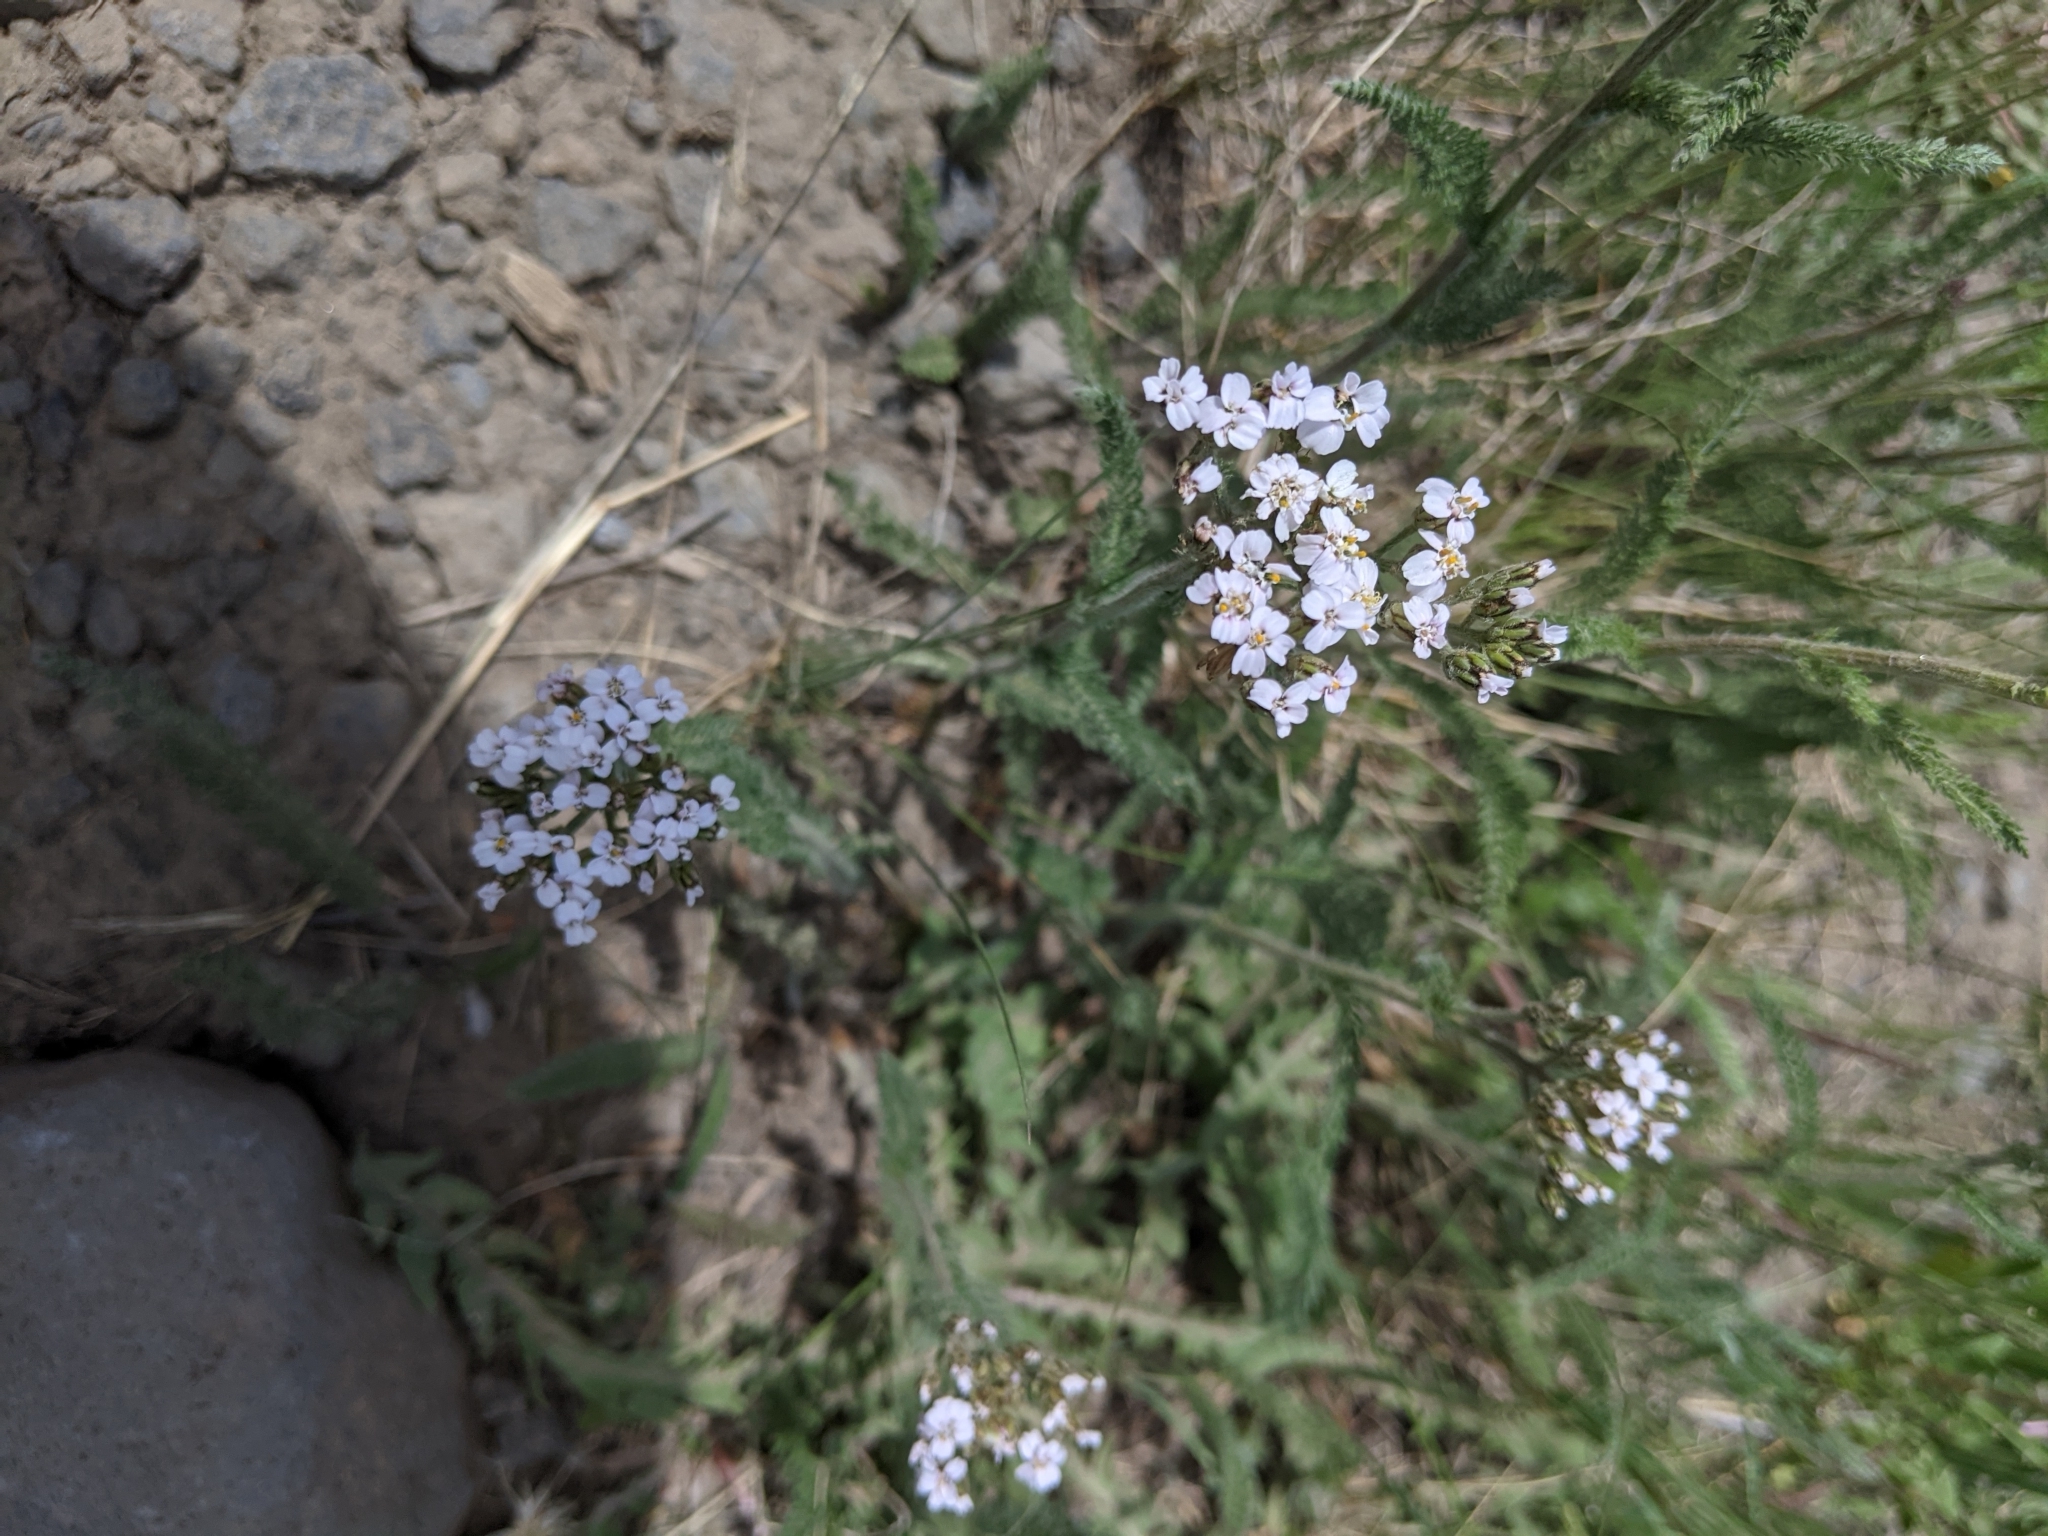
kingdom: Plantae
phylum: Tracheophyta
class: Magnoliopsida
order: Asterales
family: Asteraceae
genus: Achillea
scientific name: Achillea millefolium
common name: Yarrow
